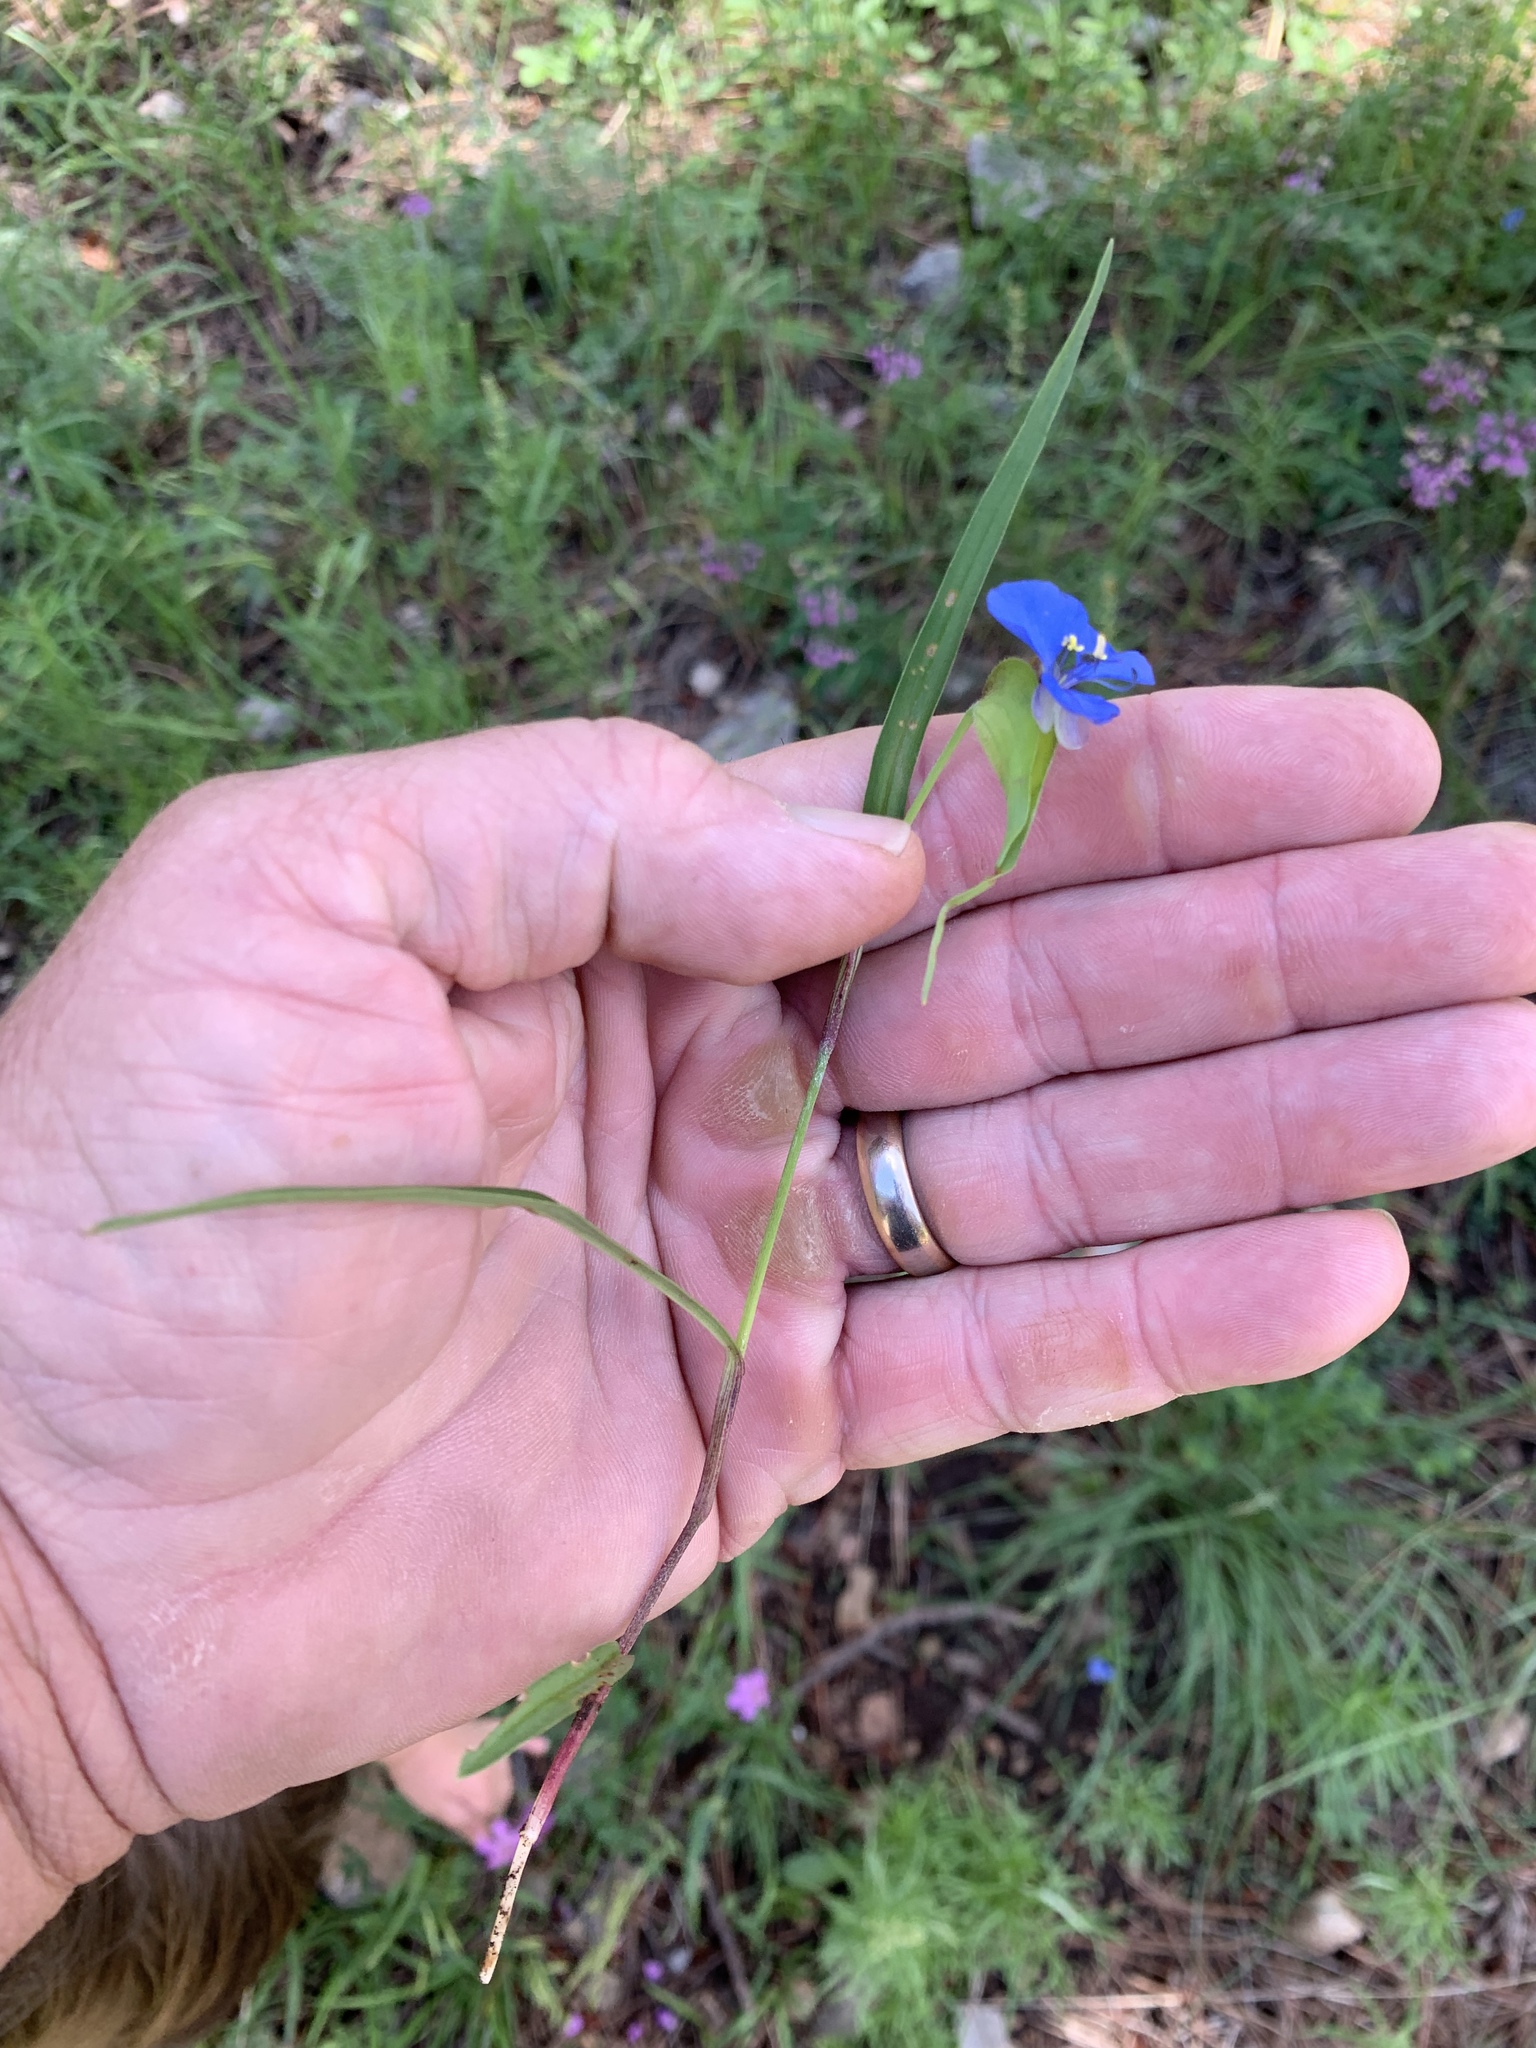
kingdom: Plantae
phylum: Tracheophyta
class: Liliopsida
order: Commelinales
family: Commelinaceae
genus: Commelina
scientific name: Commelina dianthifolia
